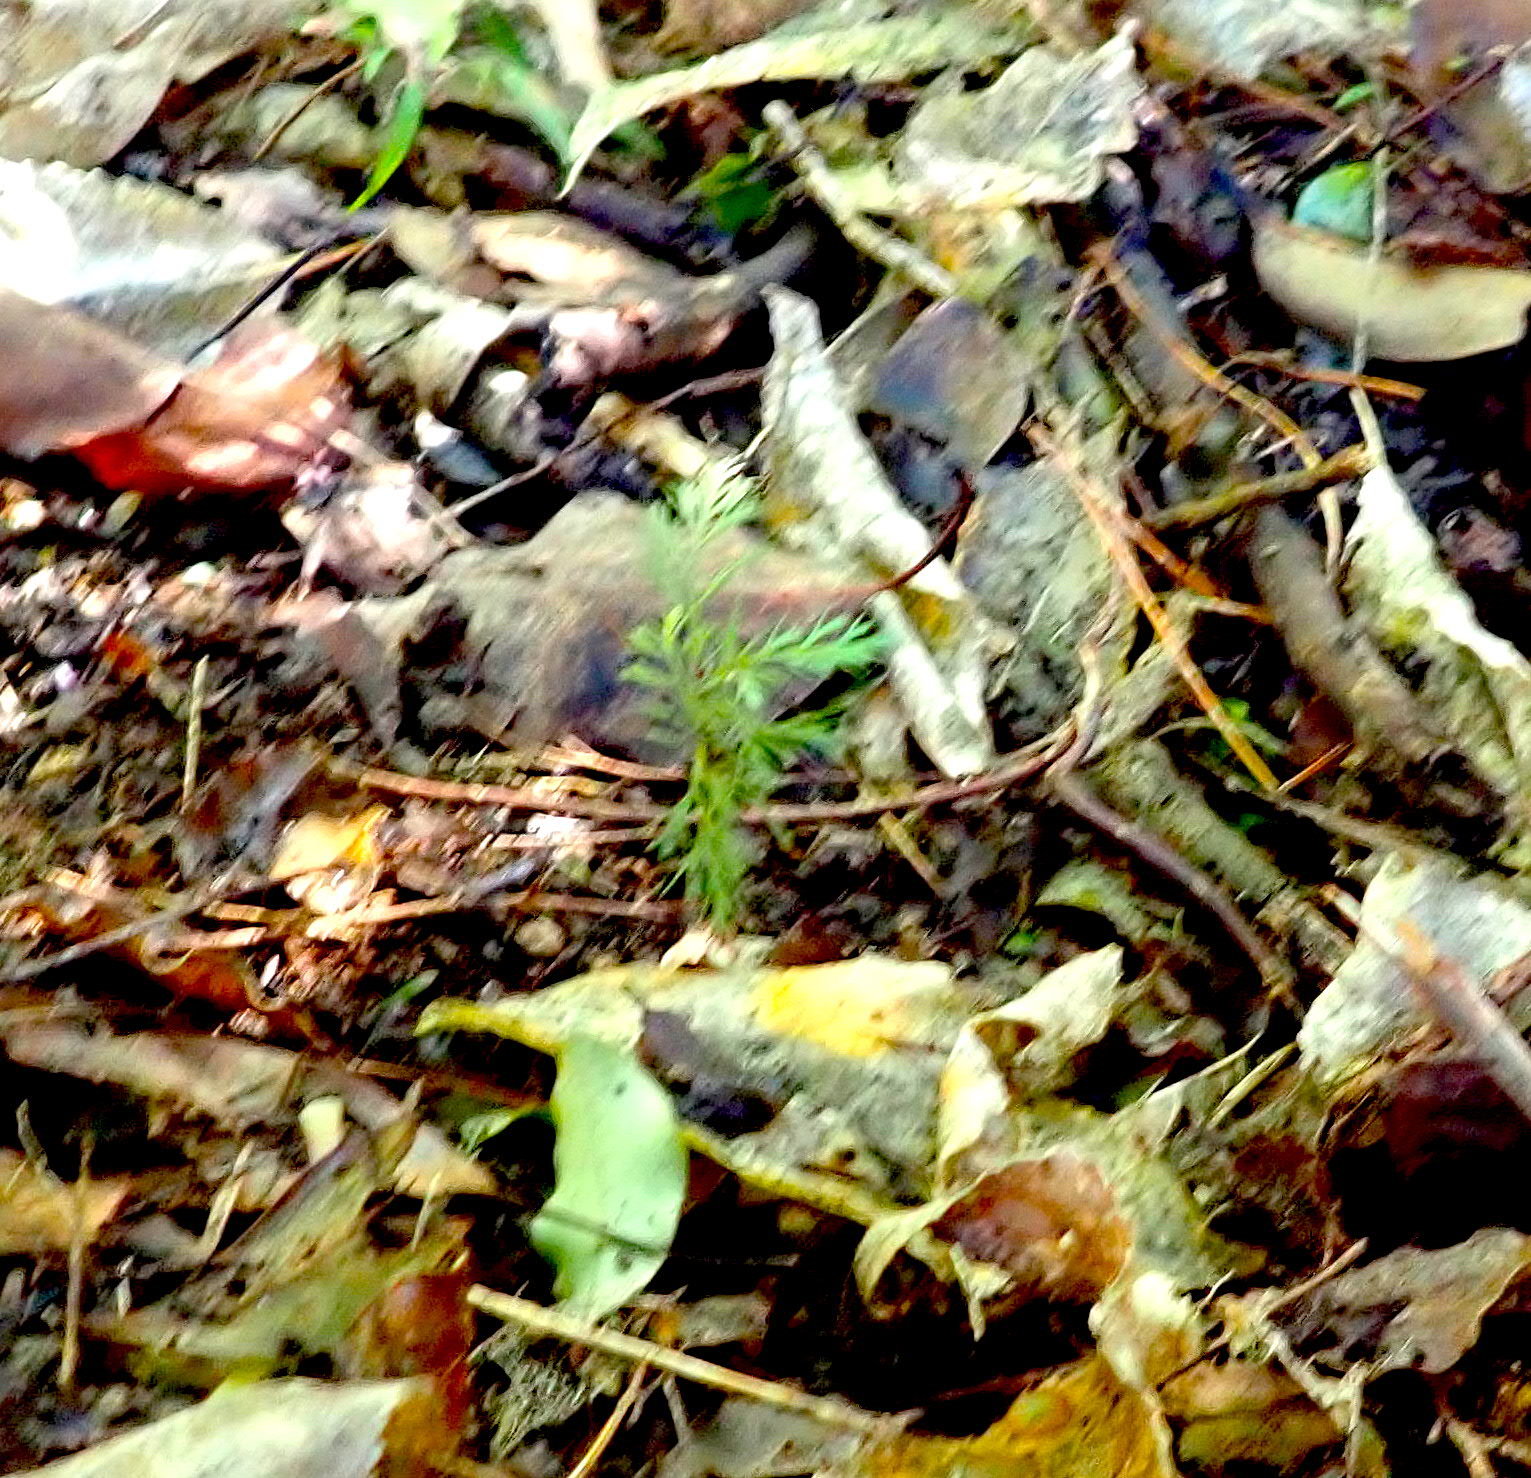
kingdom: Plantae
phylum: Tracheophyta
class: Pinopsida
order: Pinales
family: Phyllocladaceae
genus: Phyllocladus
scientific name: Phyllocladus trichomanoides
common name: Celery pine
